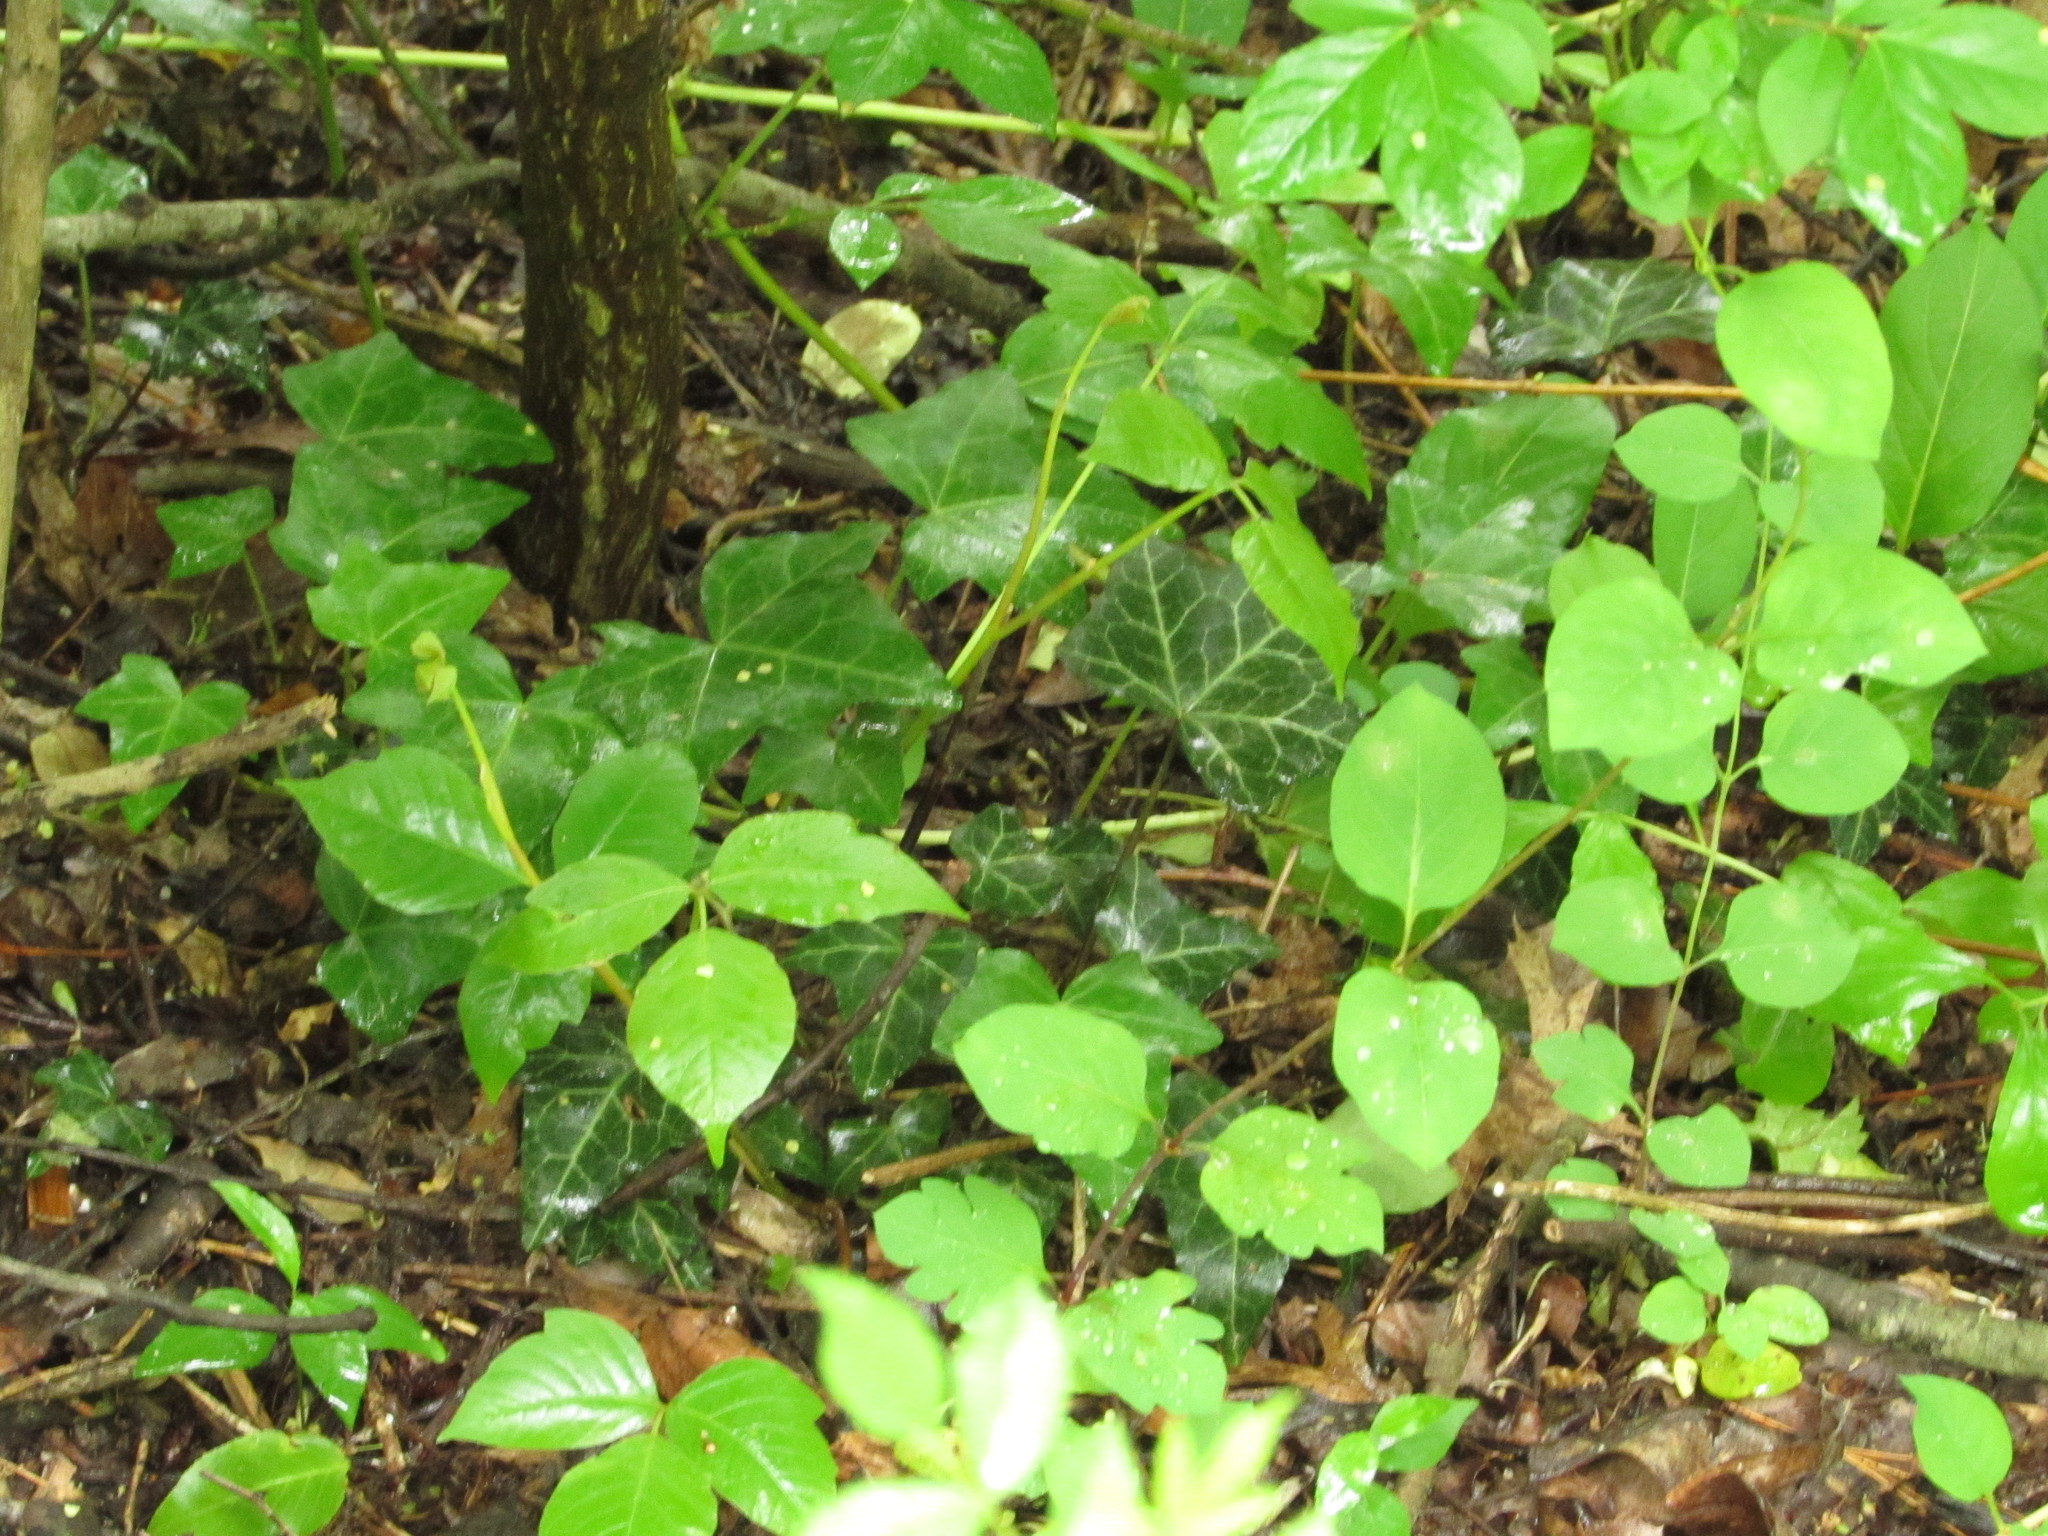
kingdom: Plantae
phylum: Tracheophyta
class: Magnoliopsida
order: Apiales
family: Araliaceae
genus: Hedera
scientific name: Hedera helix
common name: Ivy
